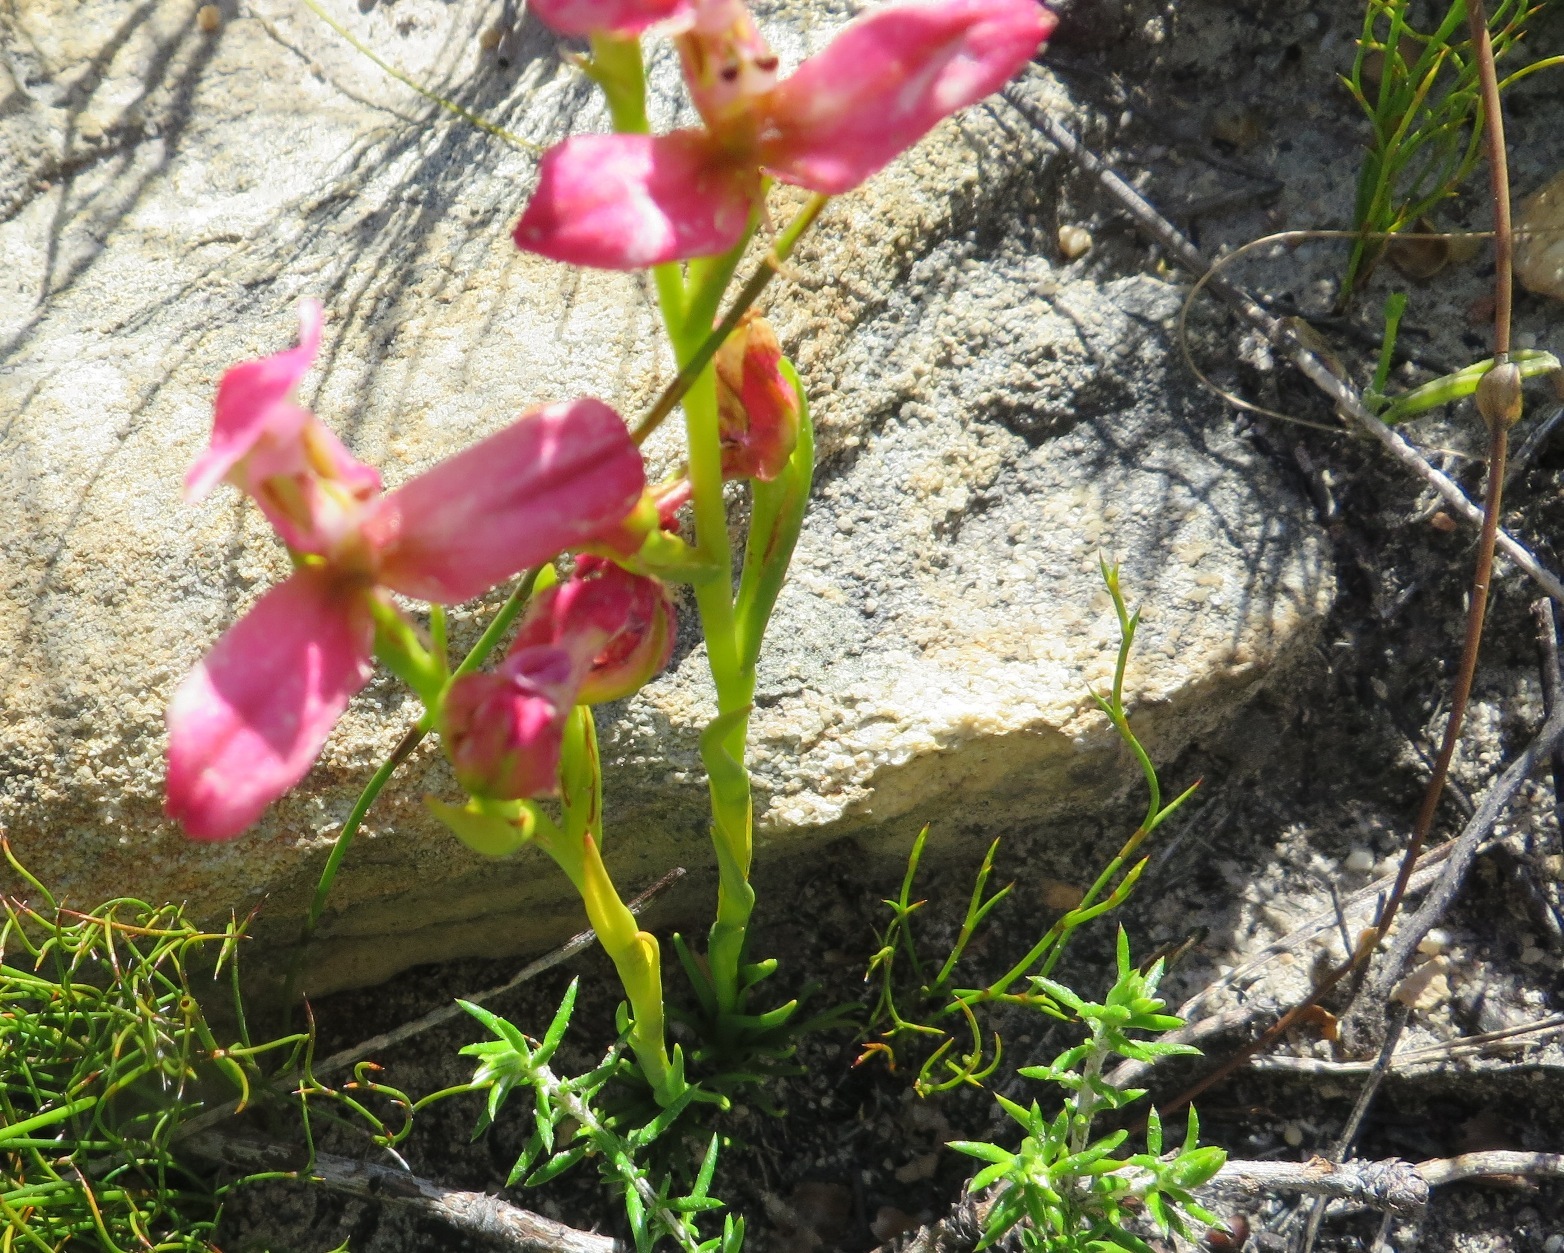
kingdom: Plantae
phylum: Tracheophyta
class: Liliopsida
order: Asparagales
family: Orchidaceae
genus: Disa
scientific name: Disa filicornis
